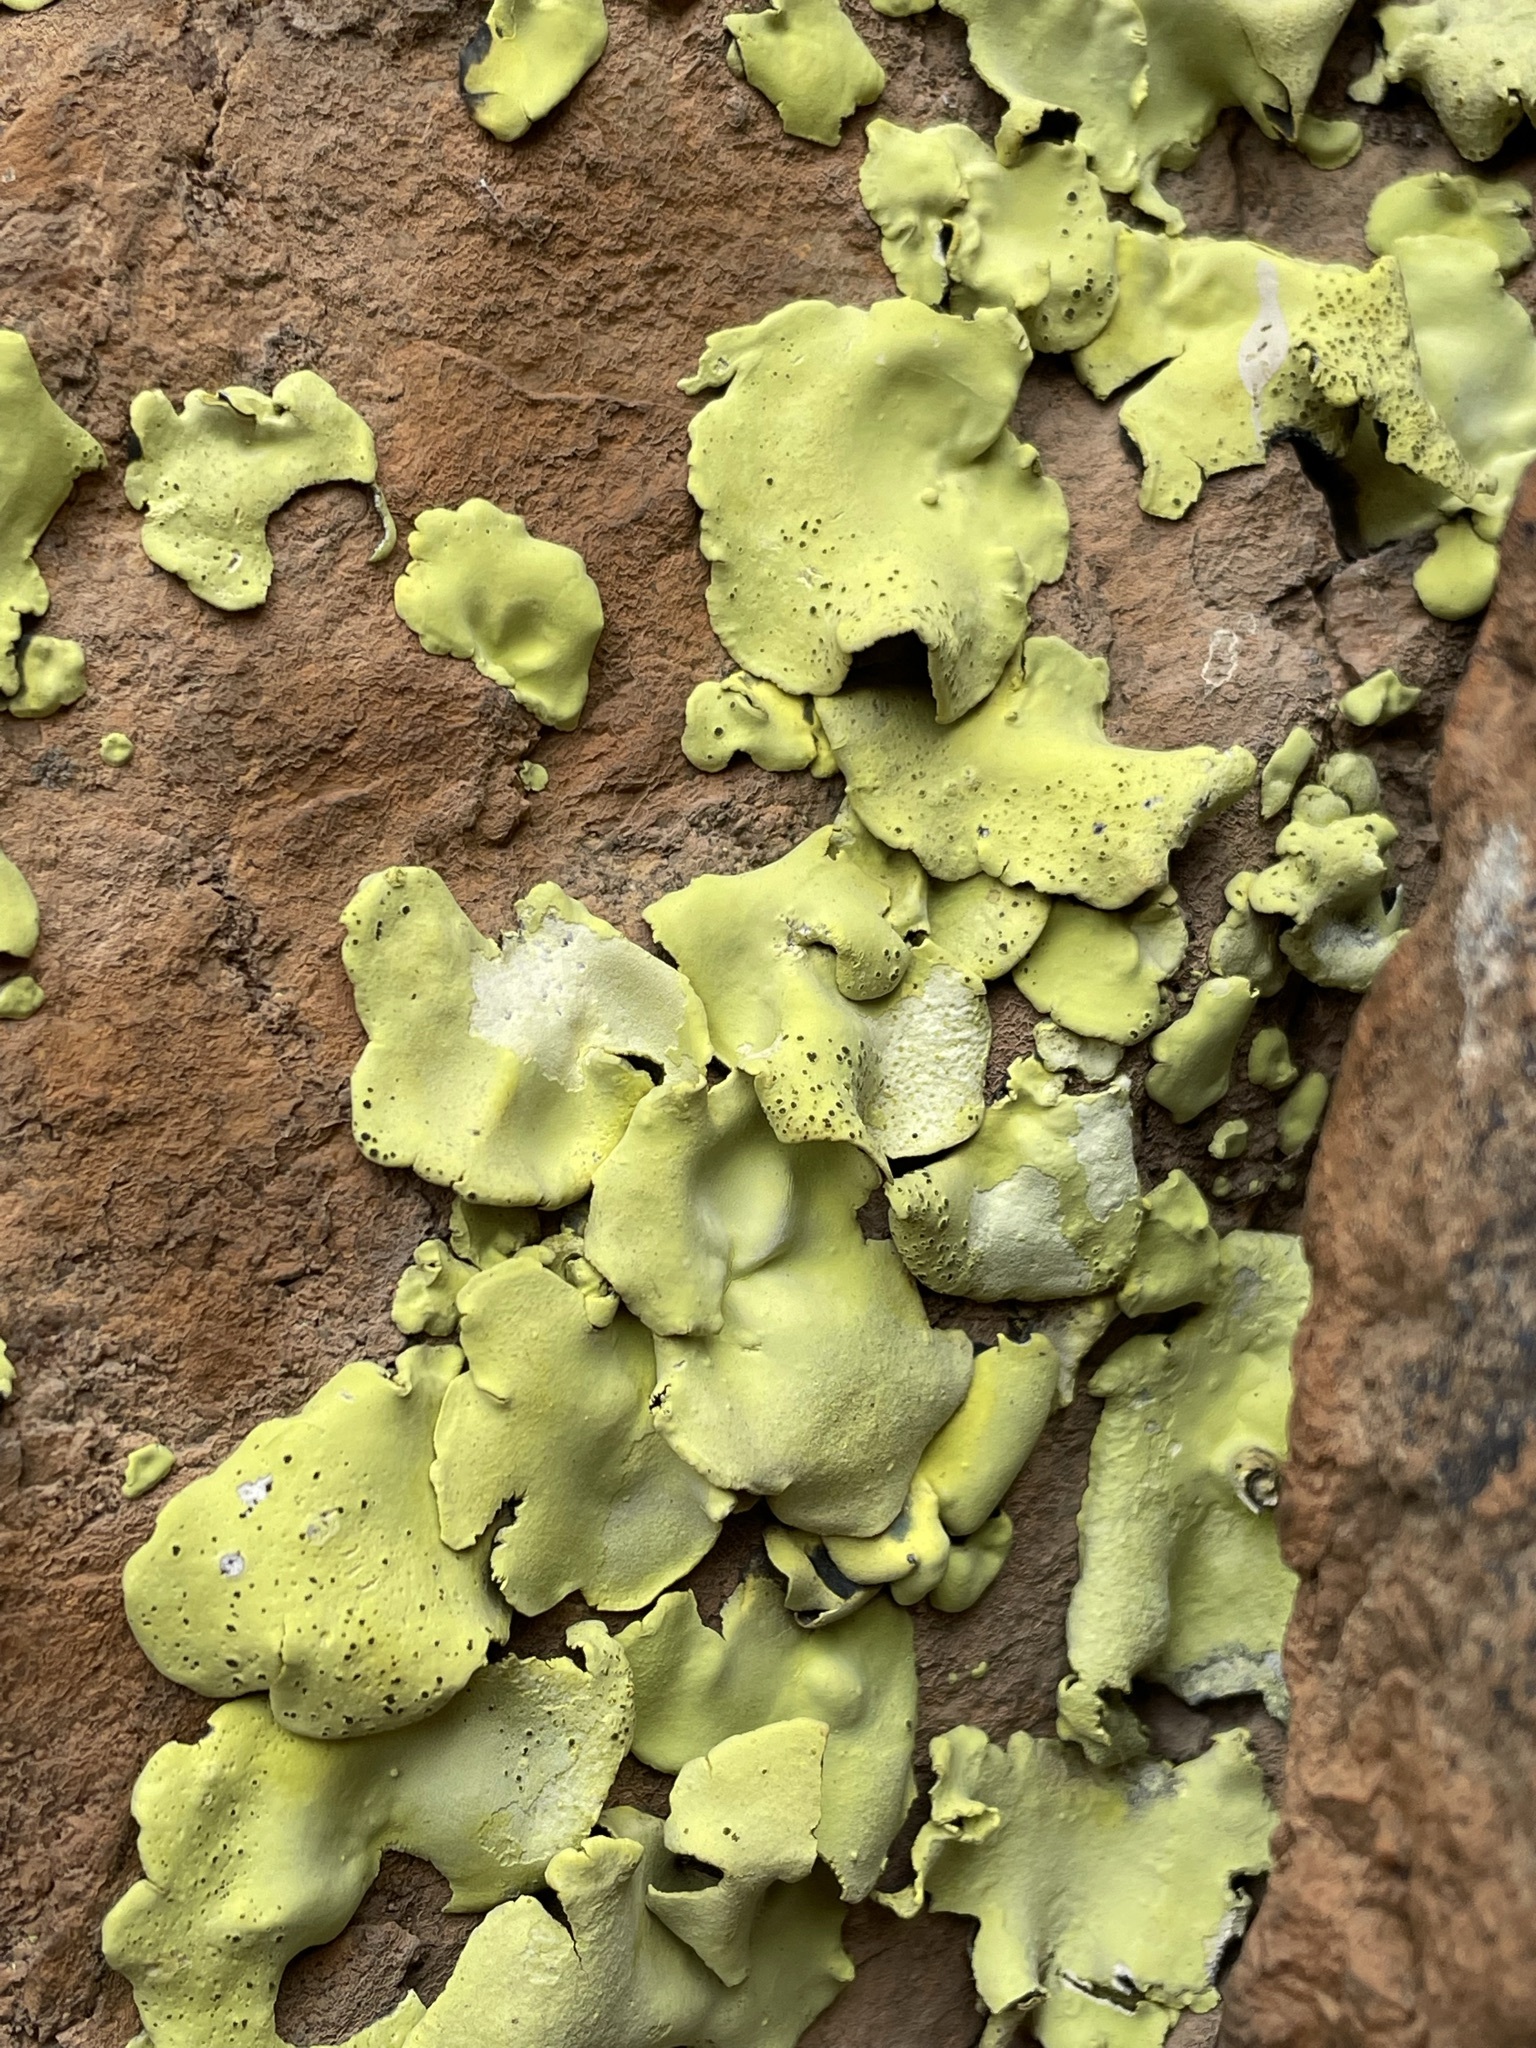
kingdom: Fungi
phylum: Ascomycota
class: Lecanoromycetes
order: Caliciales
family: Caliciaceae
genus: Dermatiscum
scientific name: Dermatiscum thunbergii
